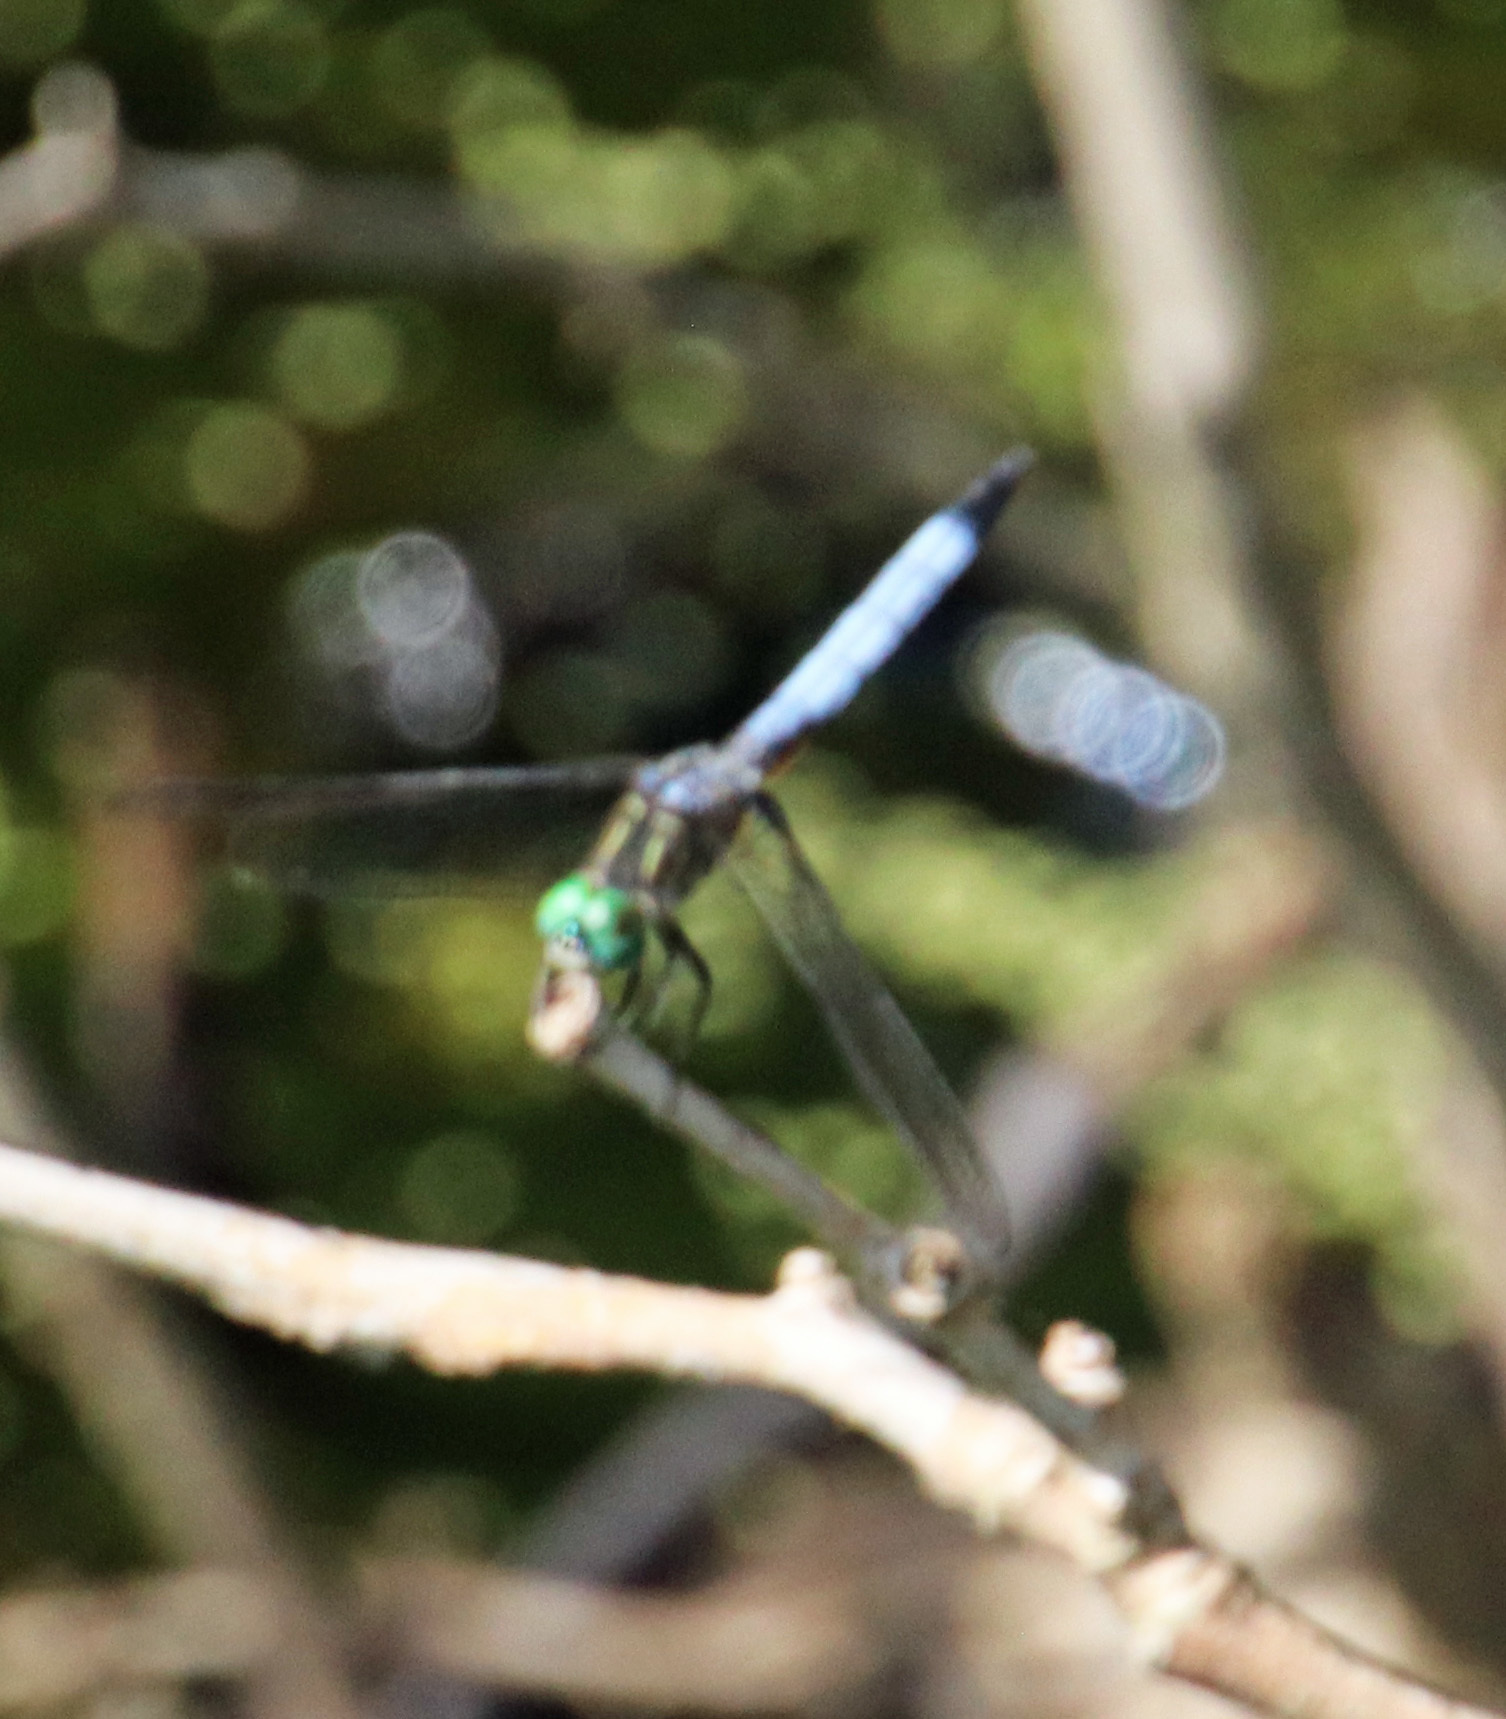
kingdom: Animalia
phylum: Arthropoda
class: Insecta
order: Odonata
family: Libellulidae
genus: Pachydiplax
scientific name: Pachydiplax longipennis
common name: Blue dasher
